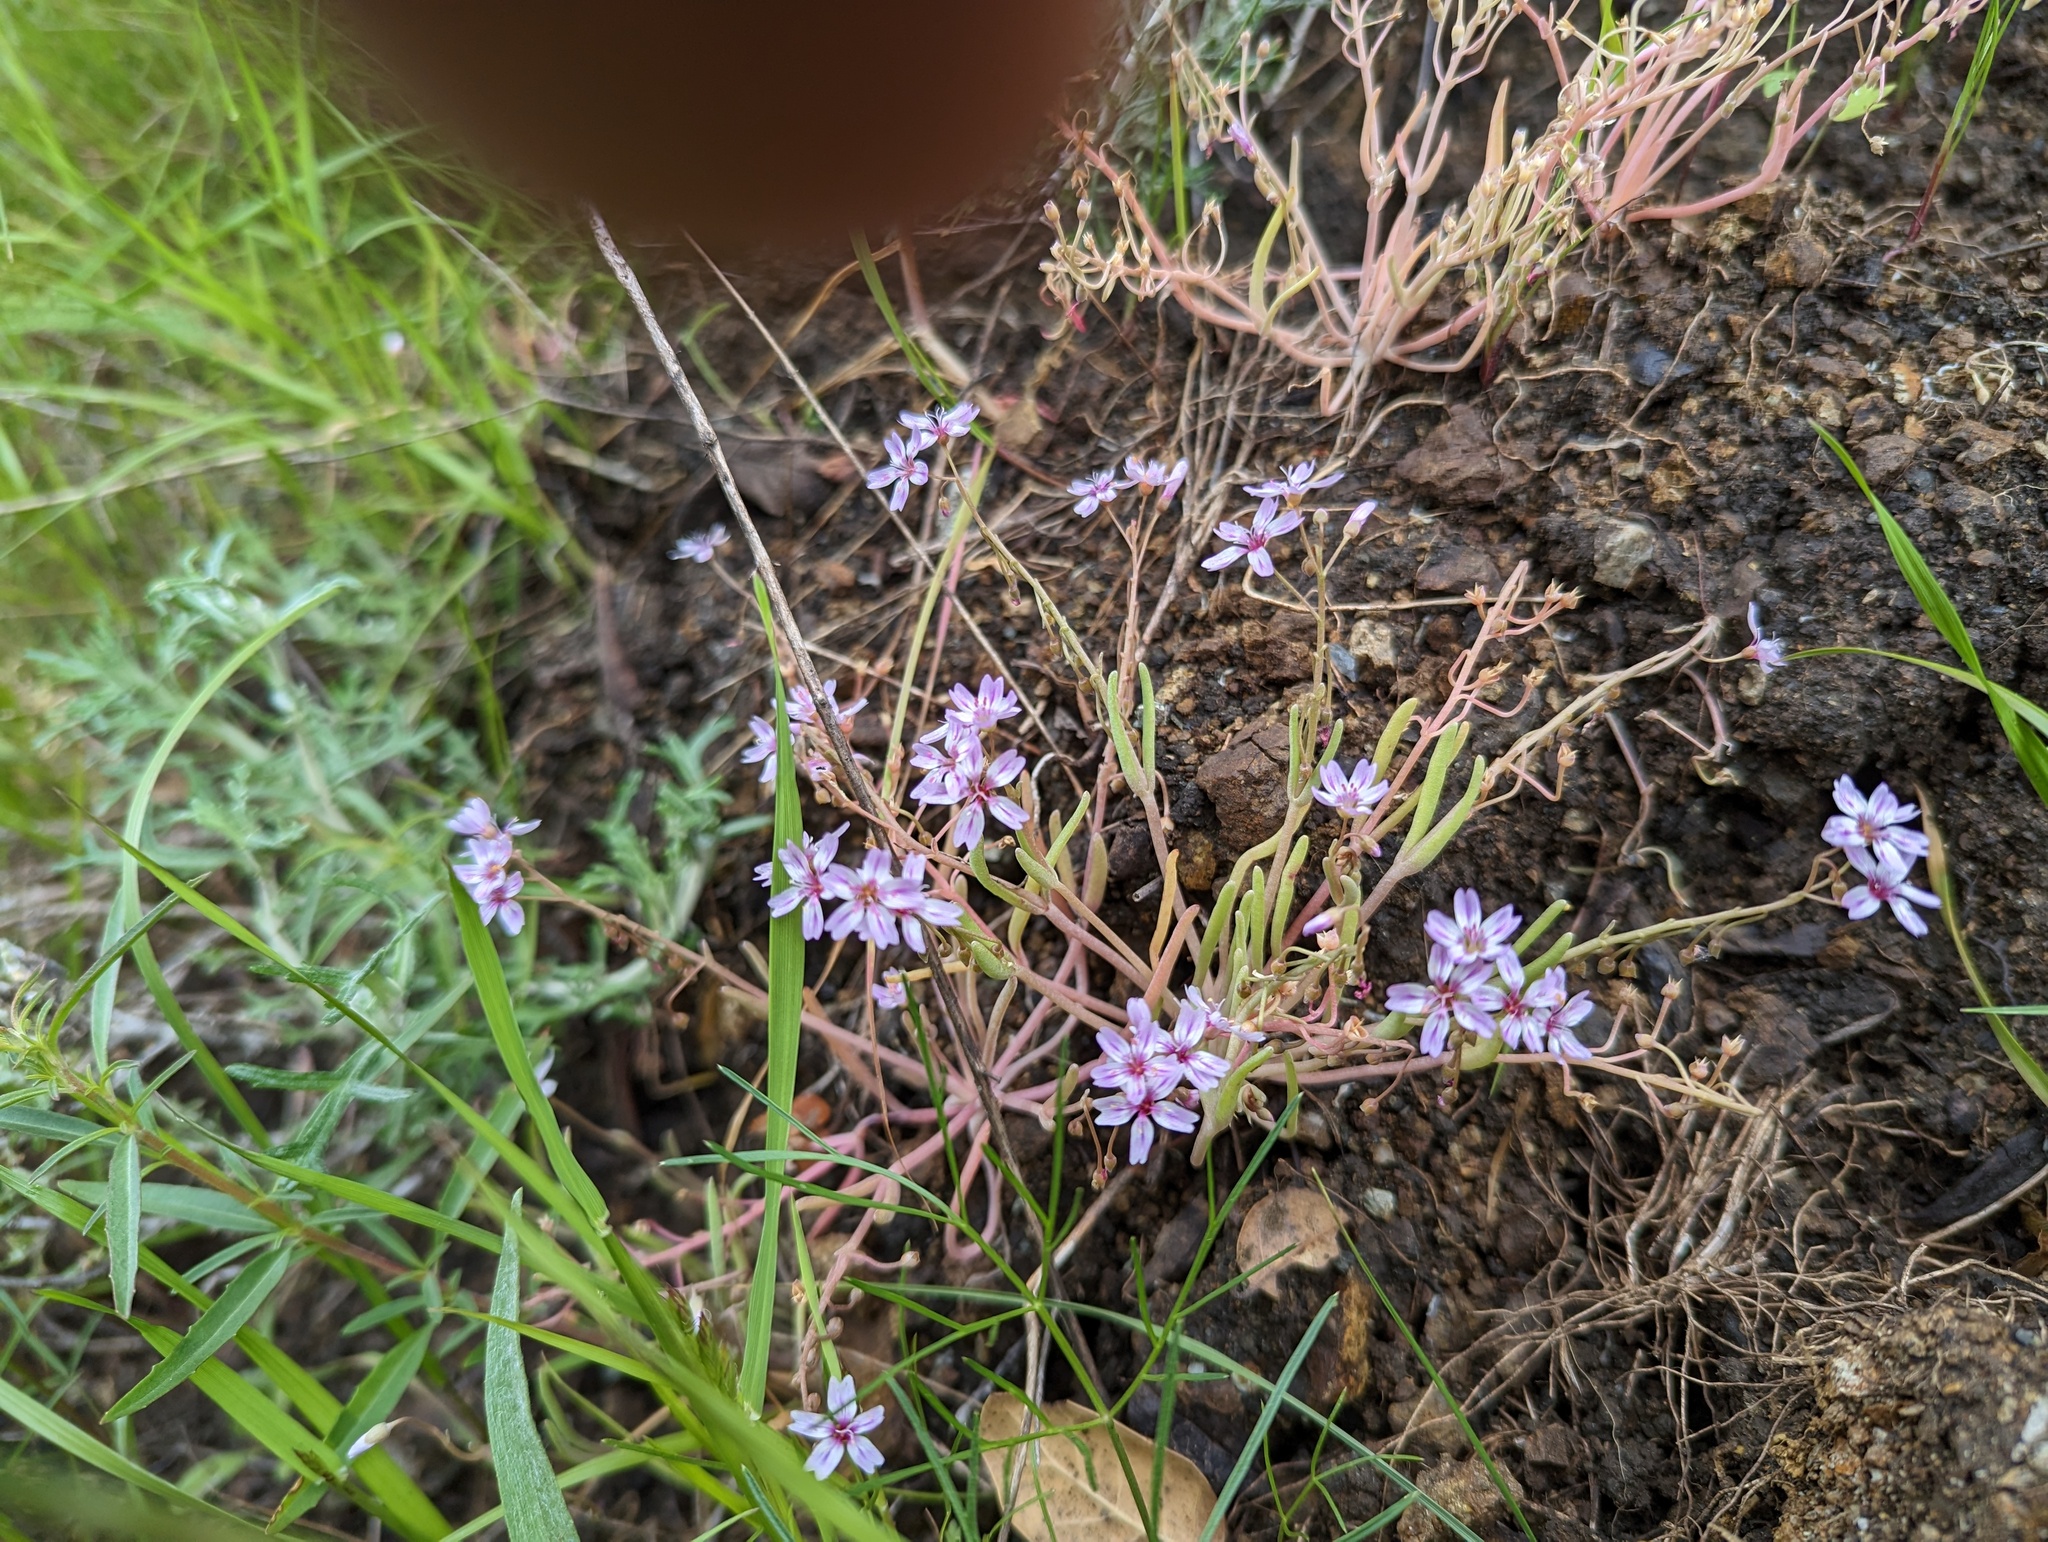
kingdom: Plantae
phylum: Tracheophyta
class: Magnoliopsida
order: Caryophyllales
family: Montiaceae
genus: Claytonia
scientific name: Claytonia gypsophiloides
